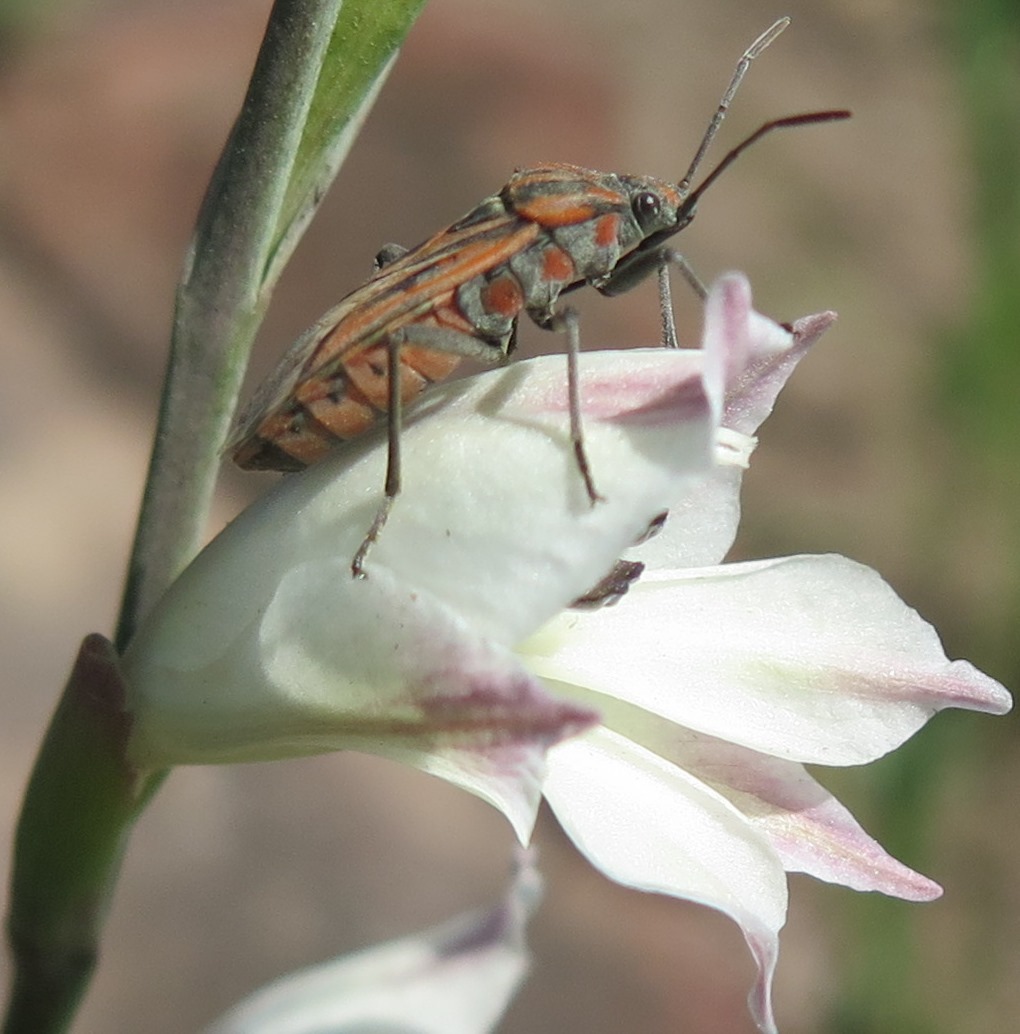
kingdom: Animalia
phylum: Arthropoda
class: Insecta
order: Hemiptera
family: Lygaeidae
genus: Spilostethus
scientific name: Spilostethus rivularis
